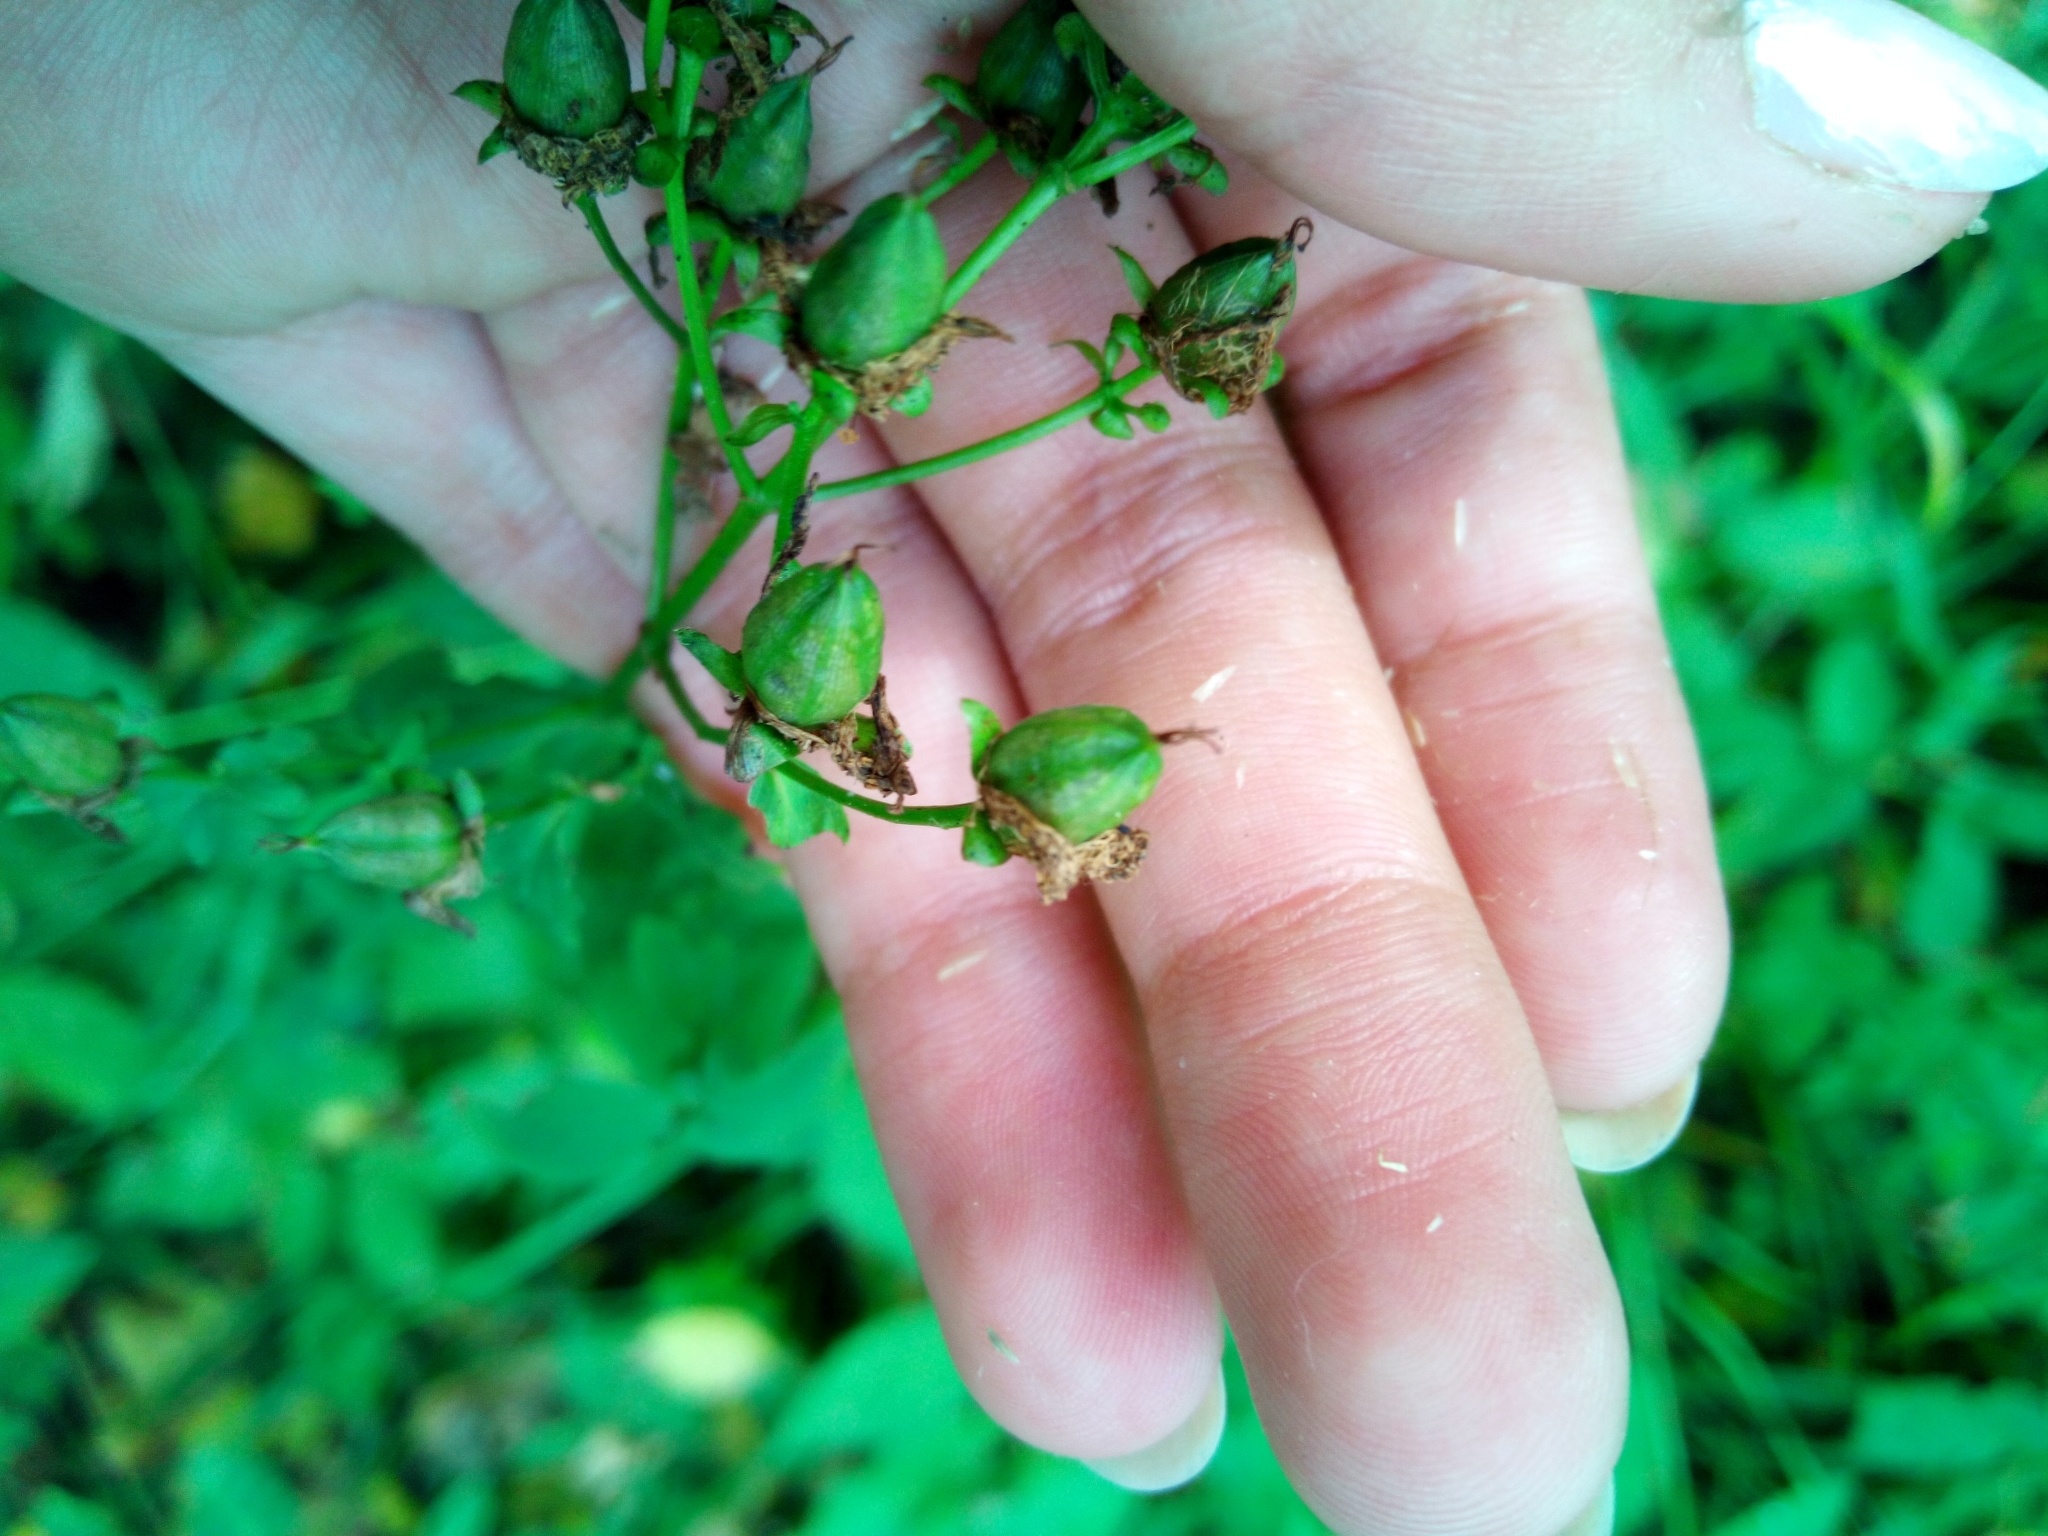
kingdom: Plantae
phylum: Tracheophyta
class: Magnoliopsida
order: Malpighiales
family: Hypericaceae
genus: Hypericum
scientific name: Hypericum maculatum
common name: Imperforate st. john's-wort
